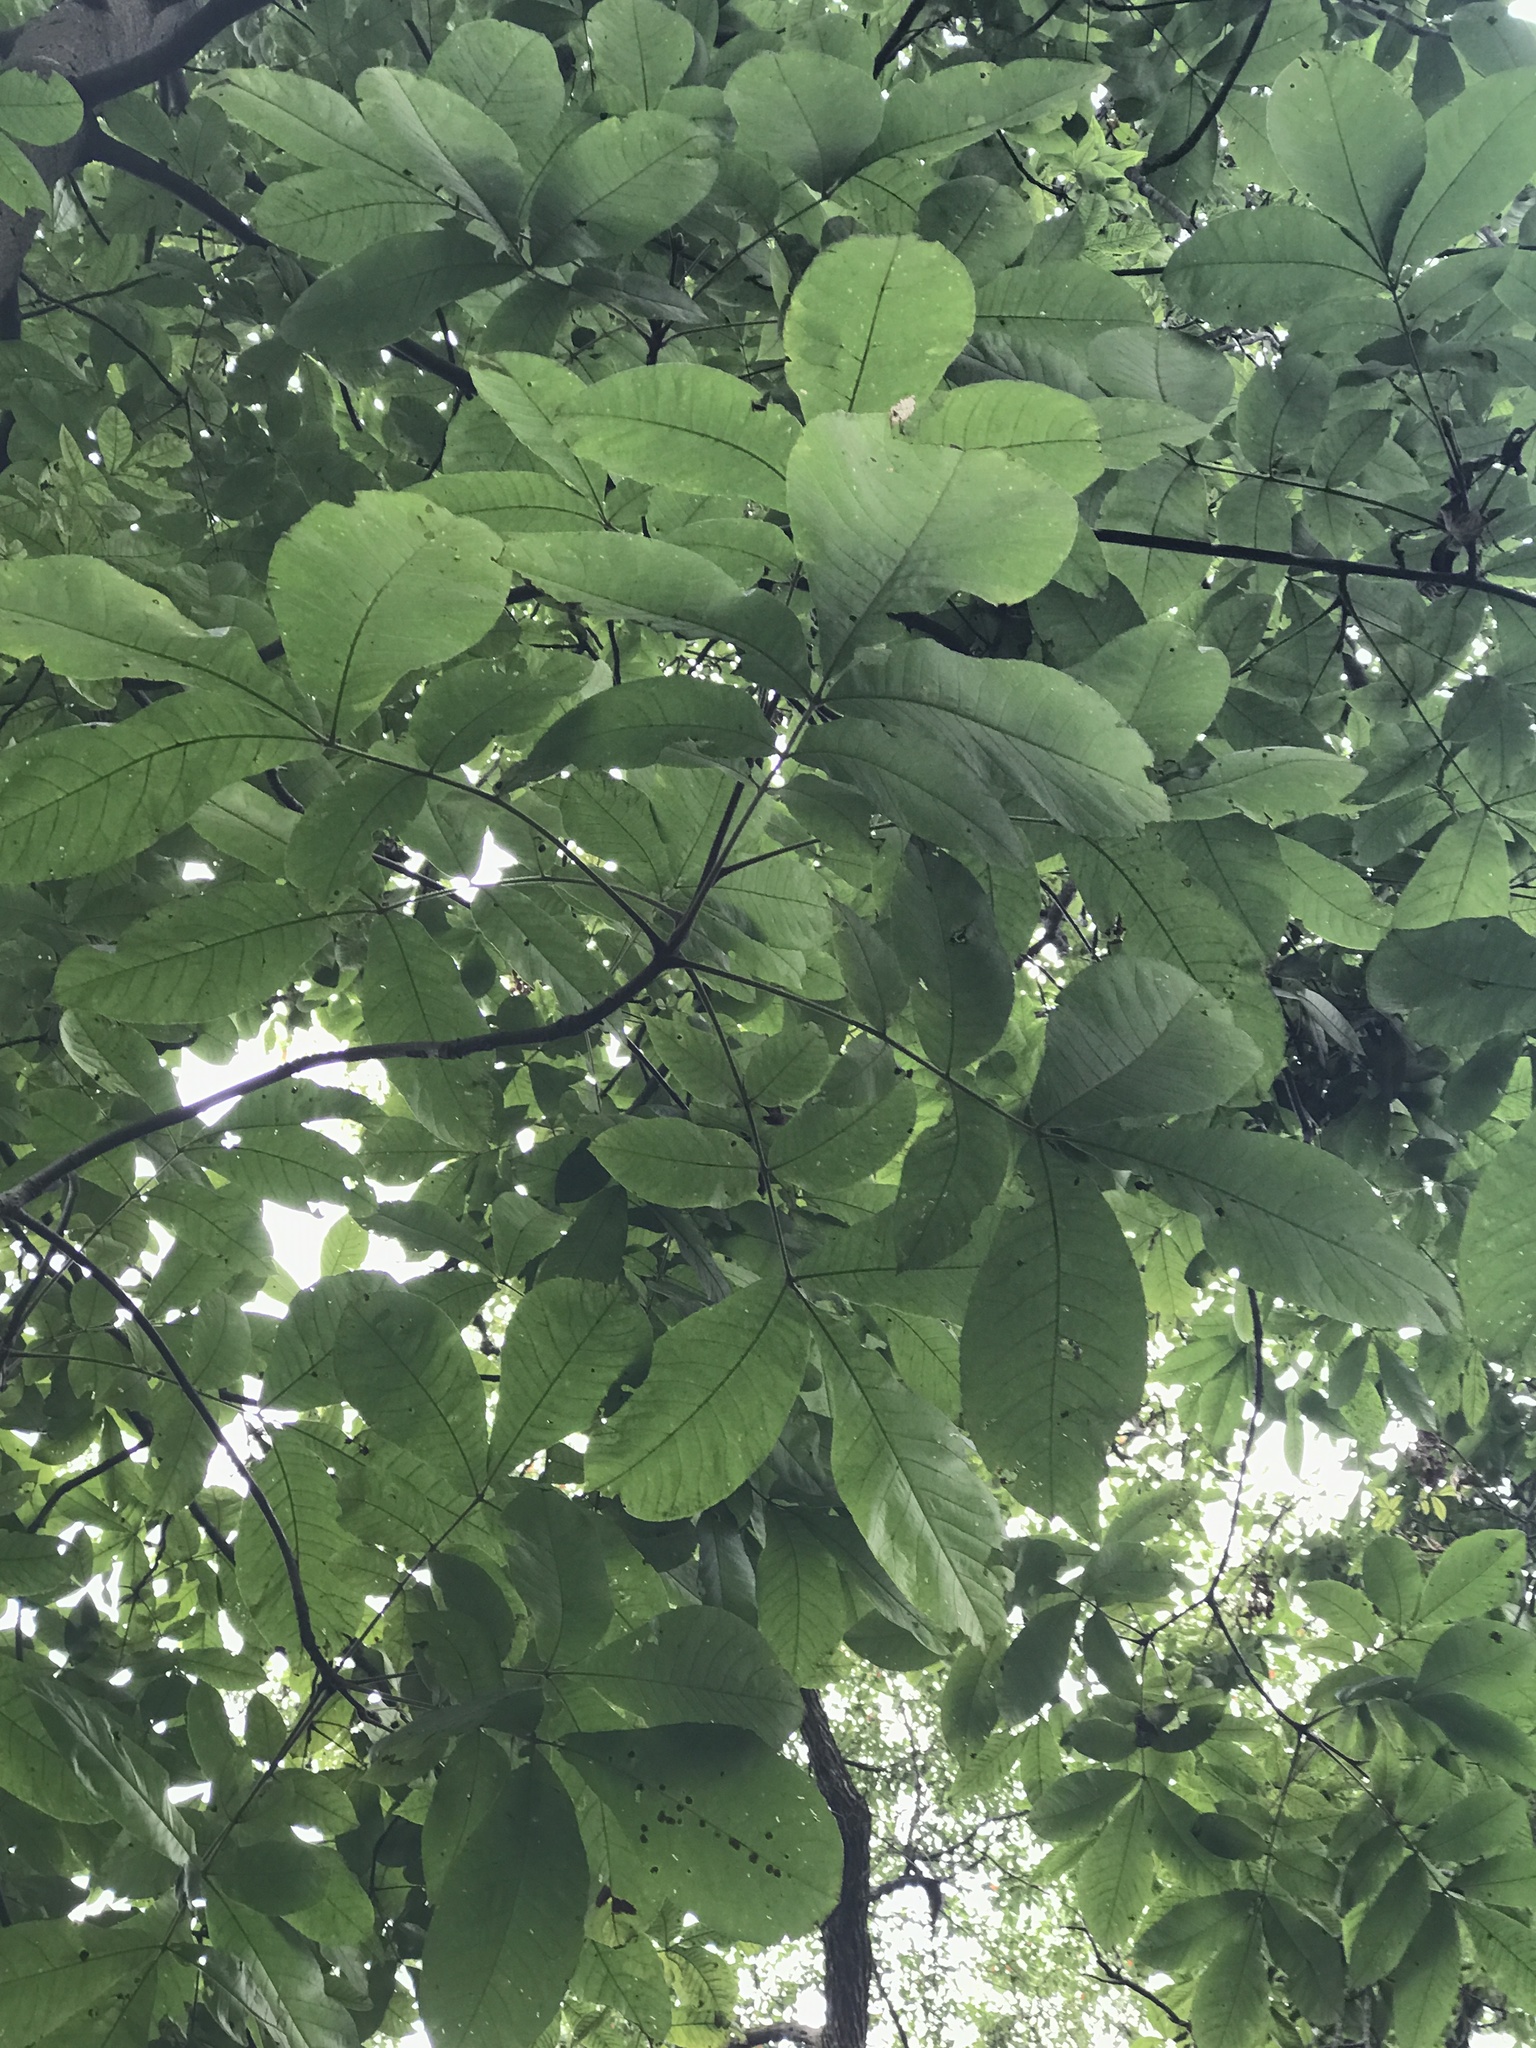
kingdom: Plantae
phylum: Tracheophyta
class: Magnoliopsida
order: Fagales
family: Juglandaceae
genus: Carya
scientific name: Carya alba
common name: Mockernut hickory
